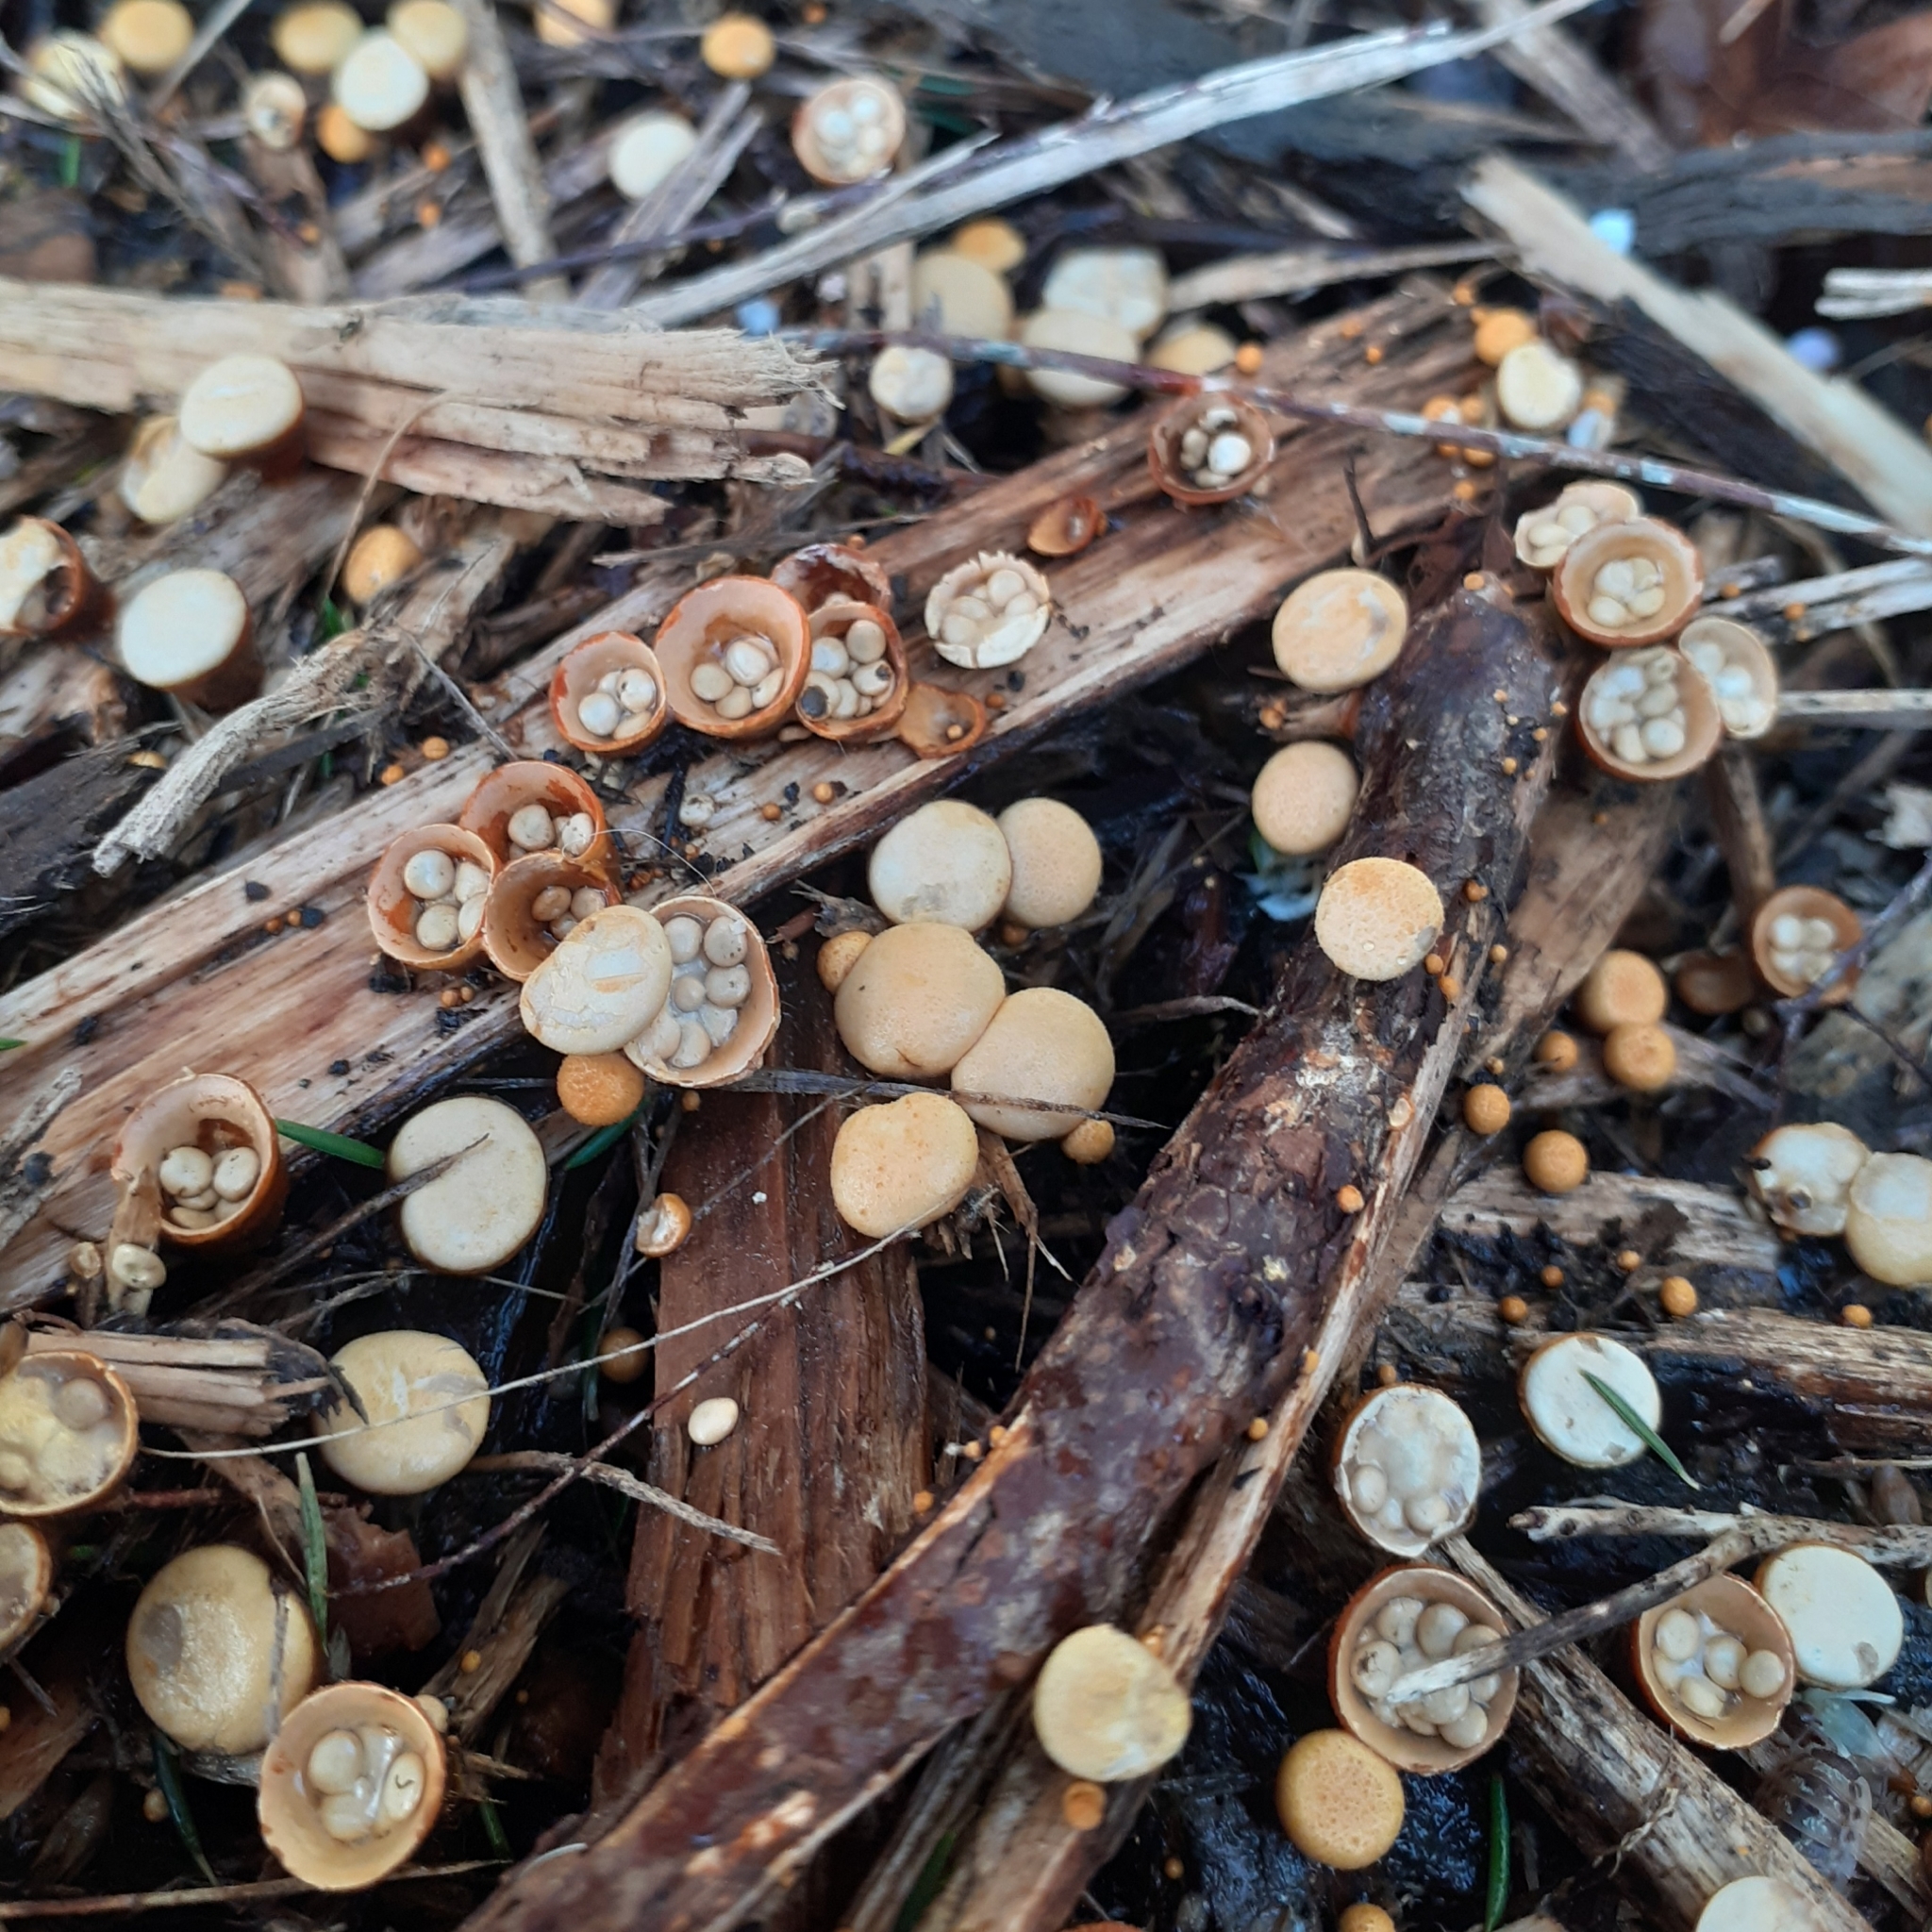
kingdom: Fungi
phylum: Basidiomycota
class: Agaricomycetes
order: Agaricales
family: Nidulariaceae
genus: Crucibulum
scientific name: Crucibulum laeve
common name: Common bird's nest
